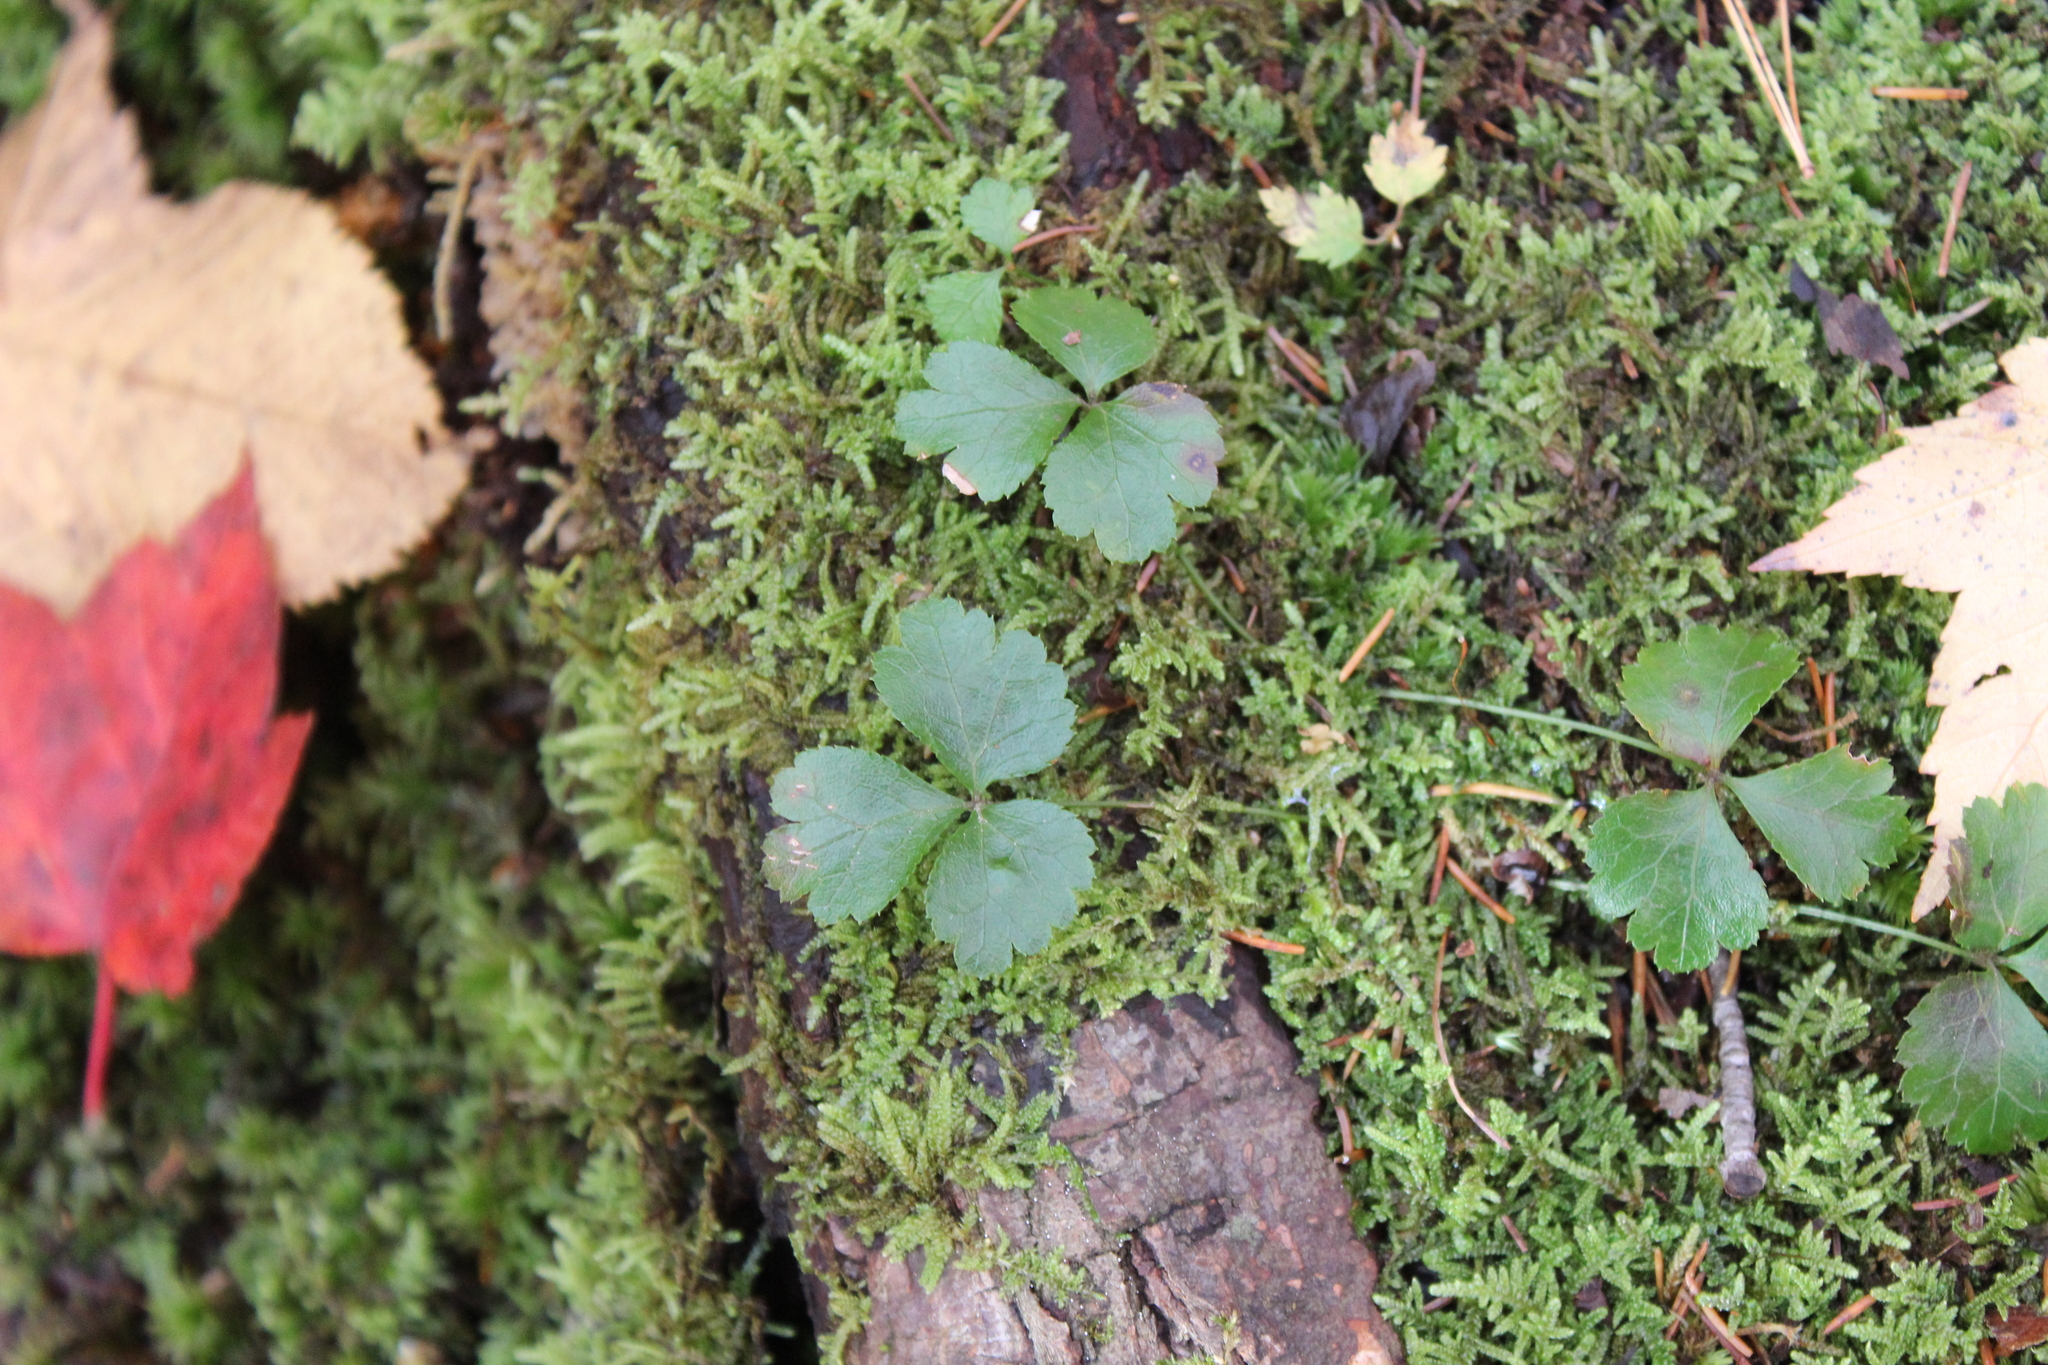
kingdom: Plantae
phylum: Tracheophyta
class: Magnoliopsida
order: Ranunculales
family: Ranunculaceae
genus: Coptis
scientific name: Coptis trifolia
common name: Canker-root
